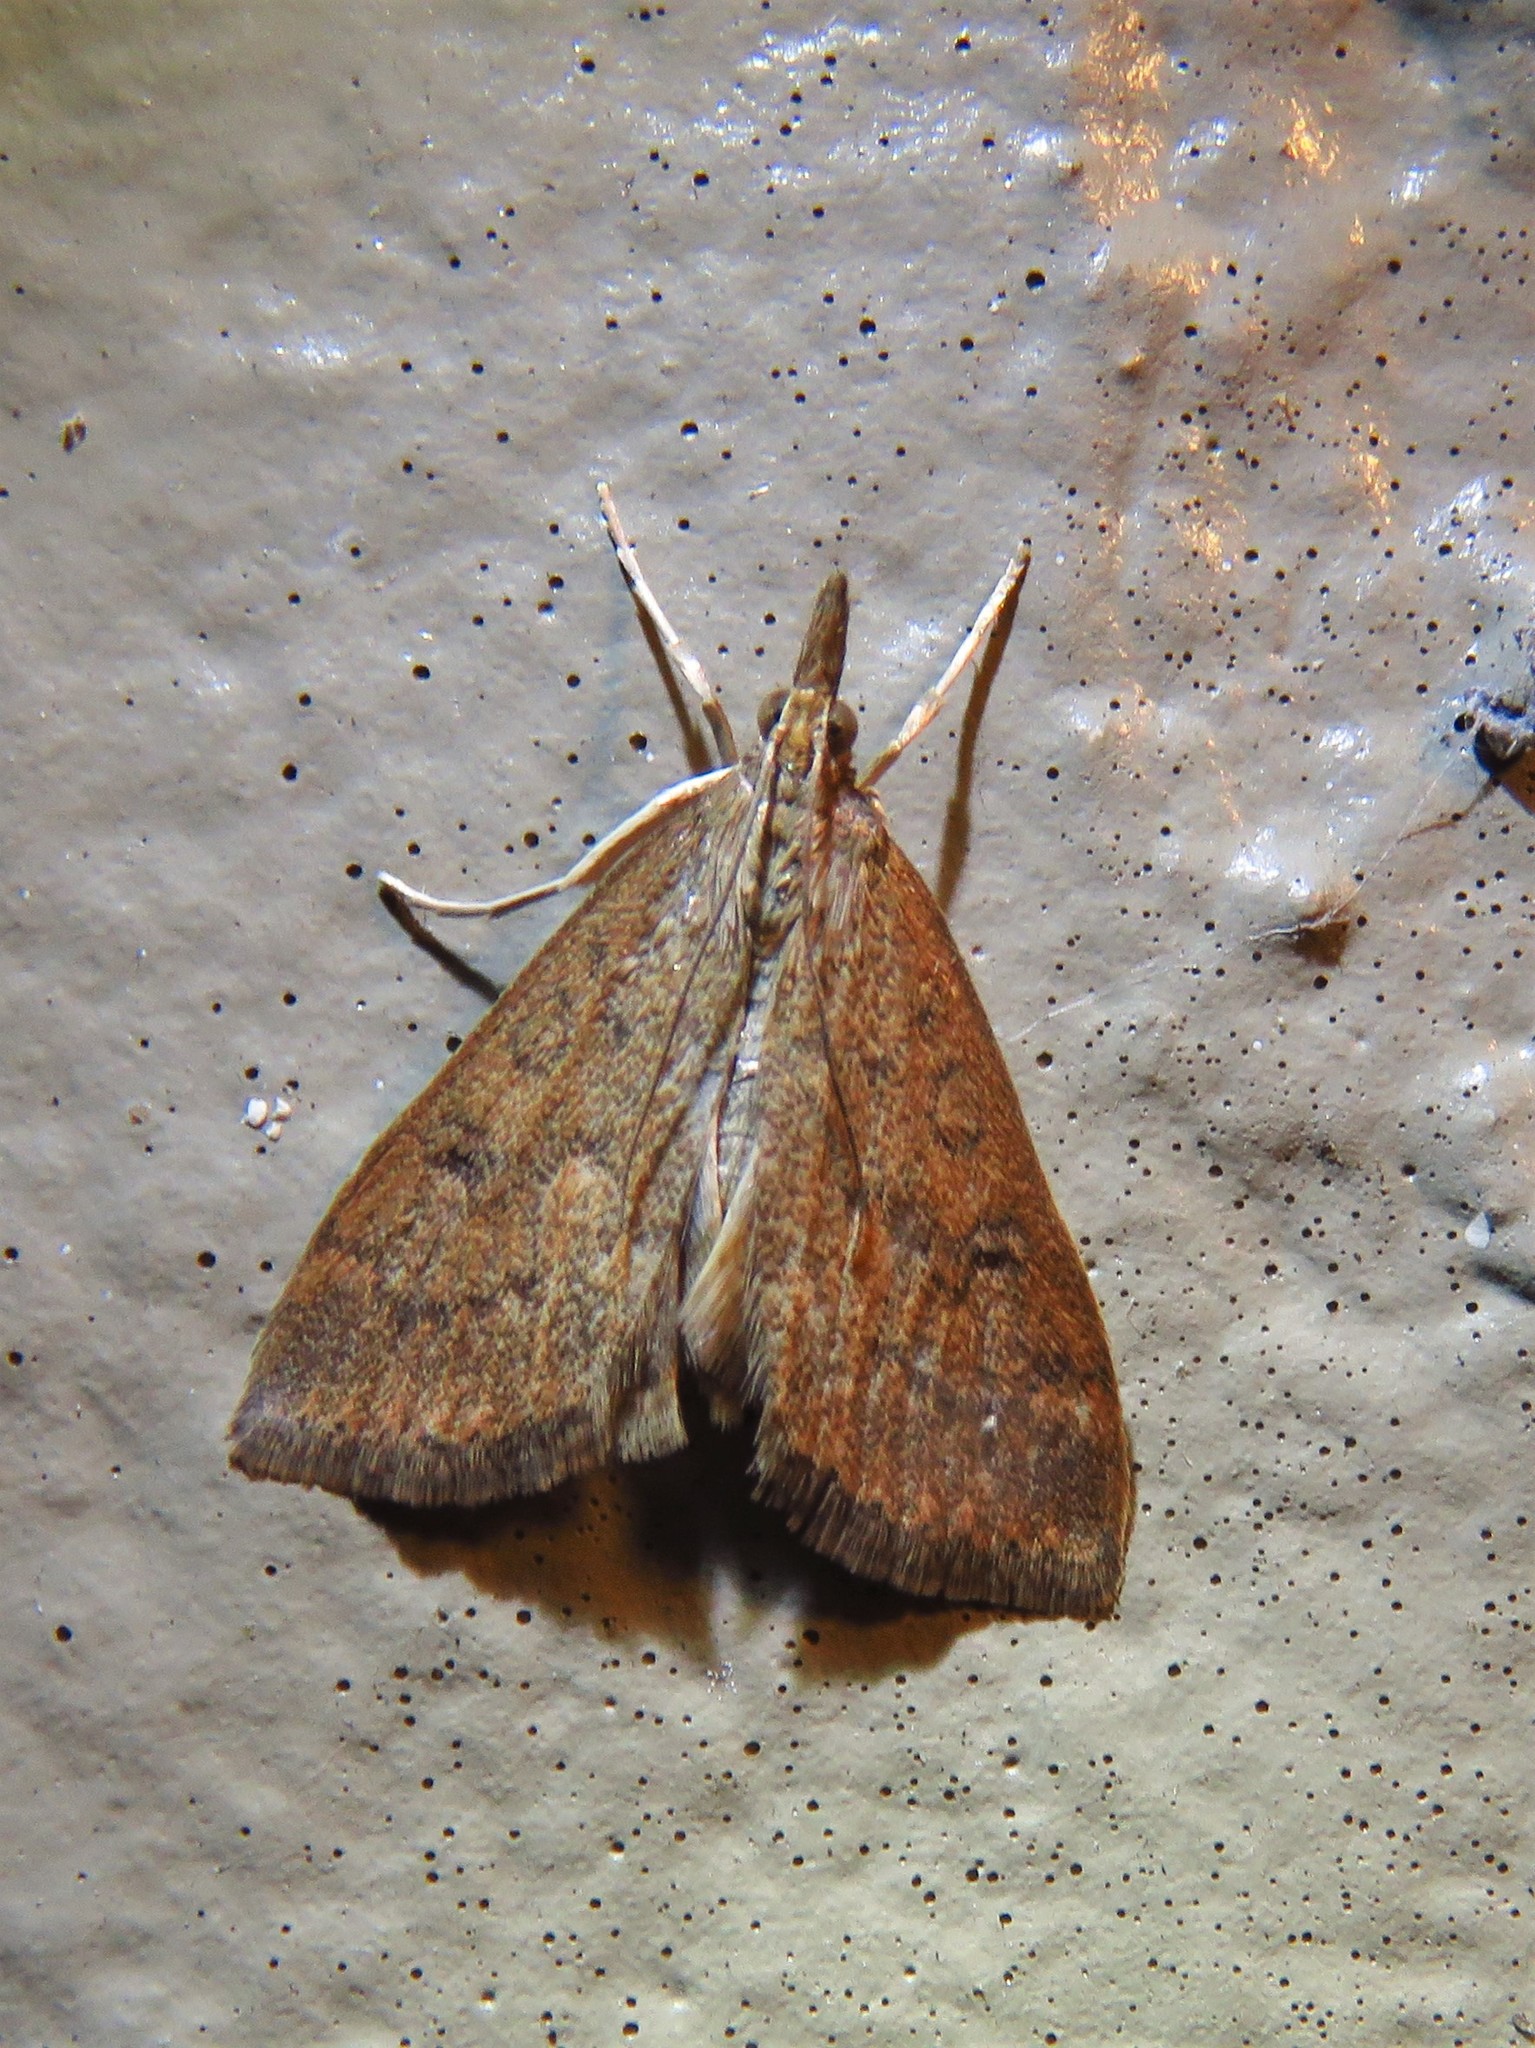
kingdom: Animalia
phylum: Arthropoda
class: Insecta
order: Lepidoptera
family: Crambidae
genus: Udea
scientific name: Udea rubigalis
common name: Celery leaftier moth
